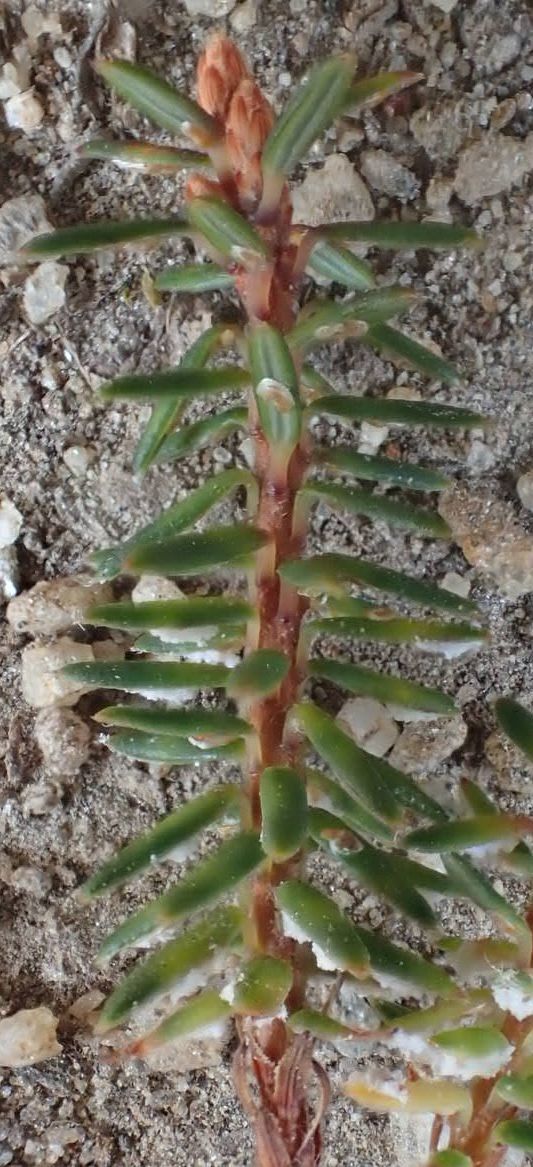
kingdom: Plantae
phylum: Tracheophyta
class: Magnoliopsida
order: Ericales
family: Ericaceae
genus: Androstoma
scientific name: Androstoma empetrifolia
